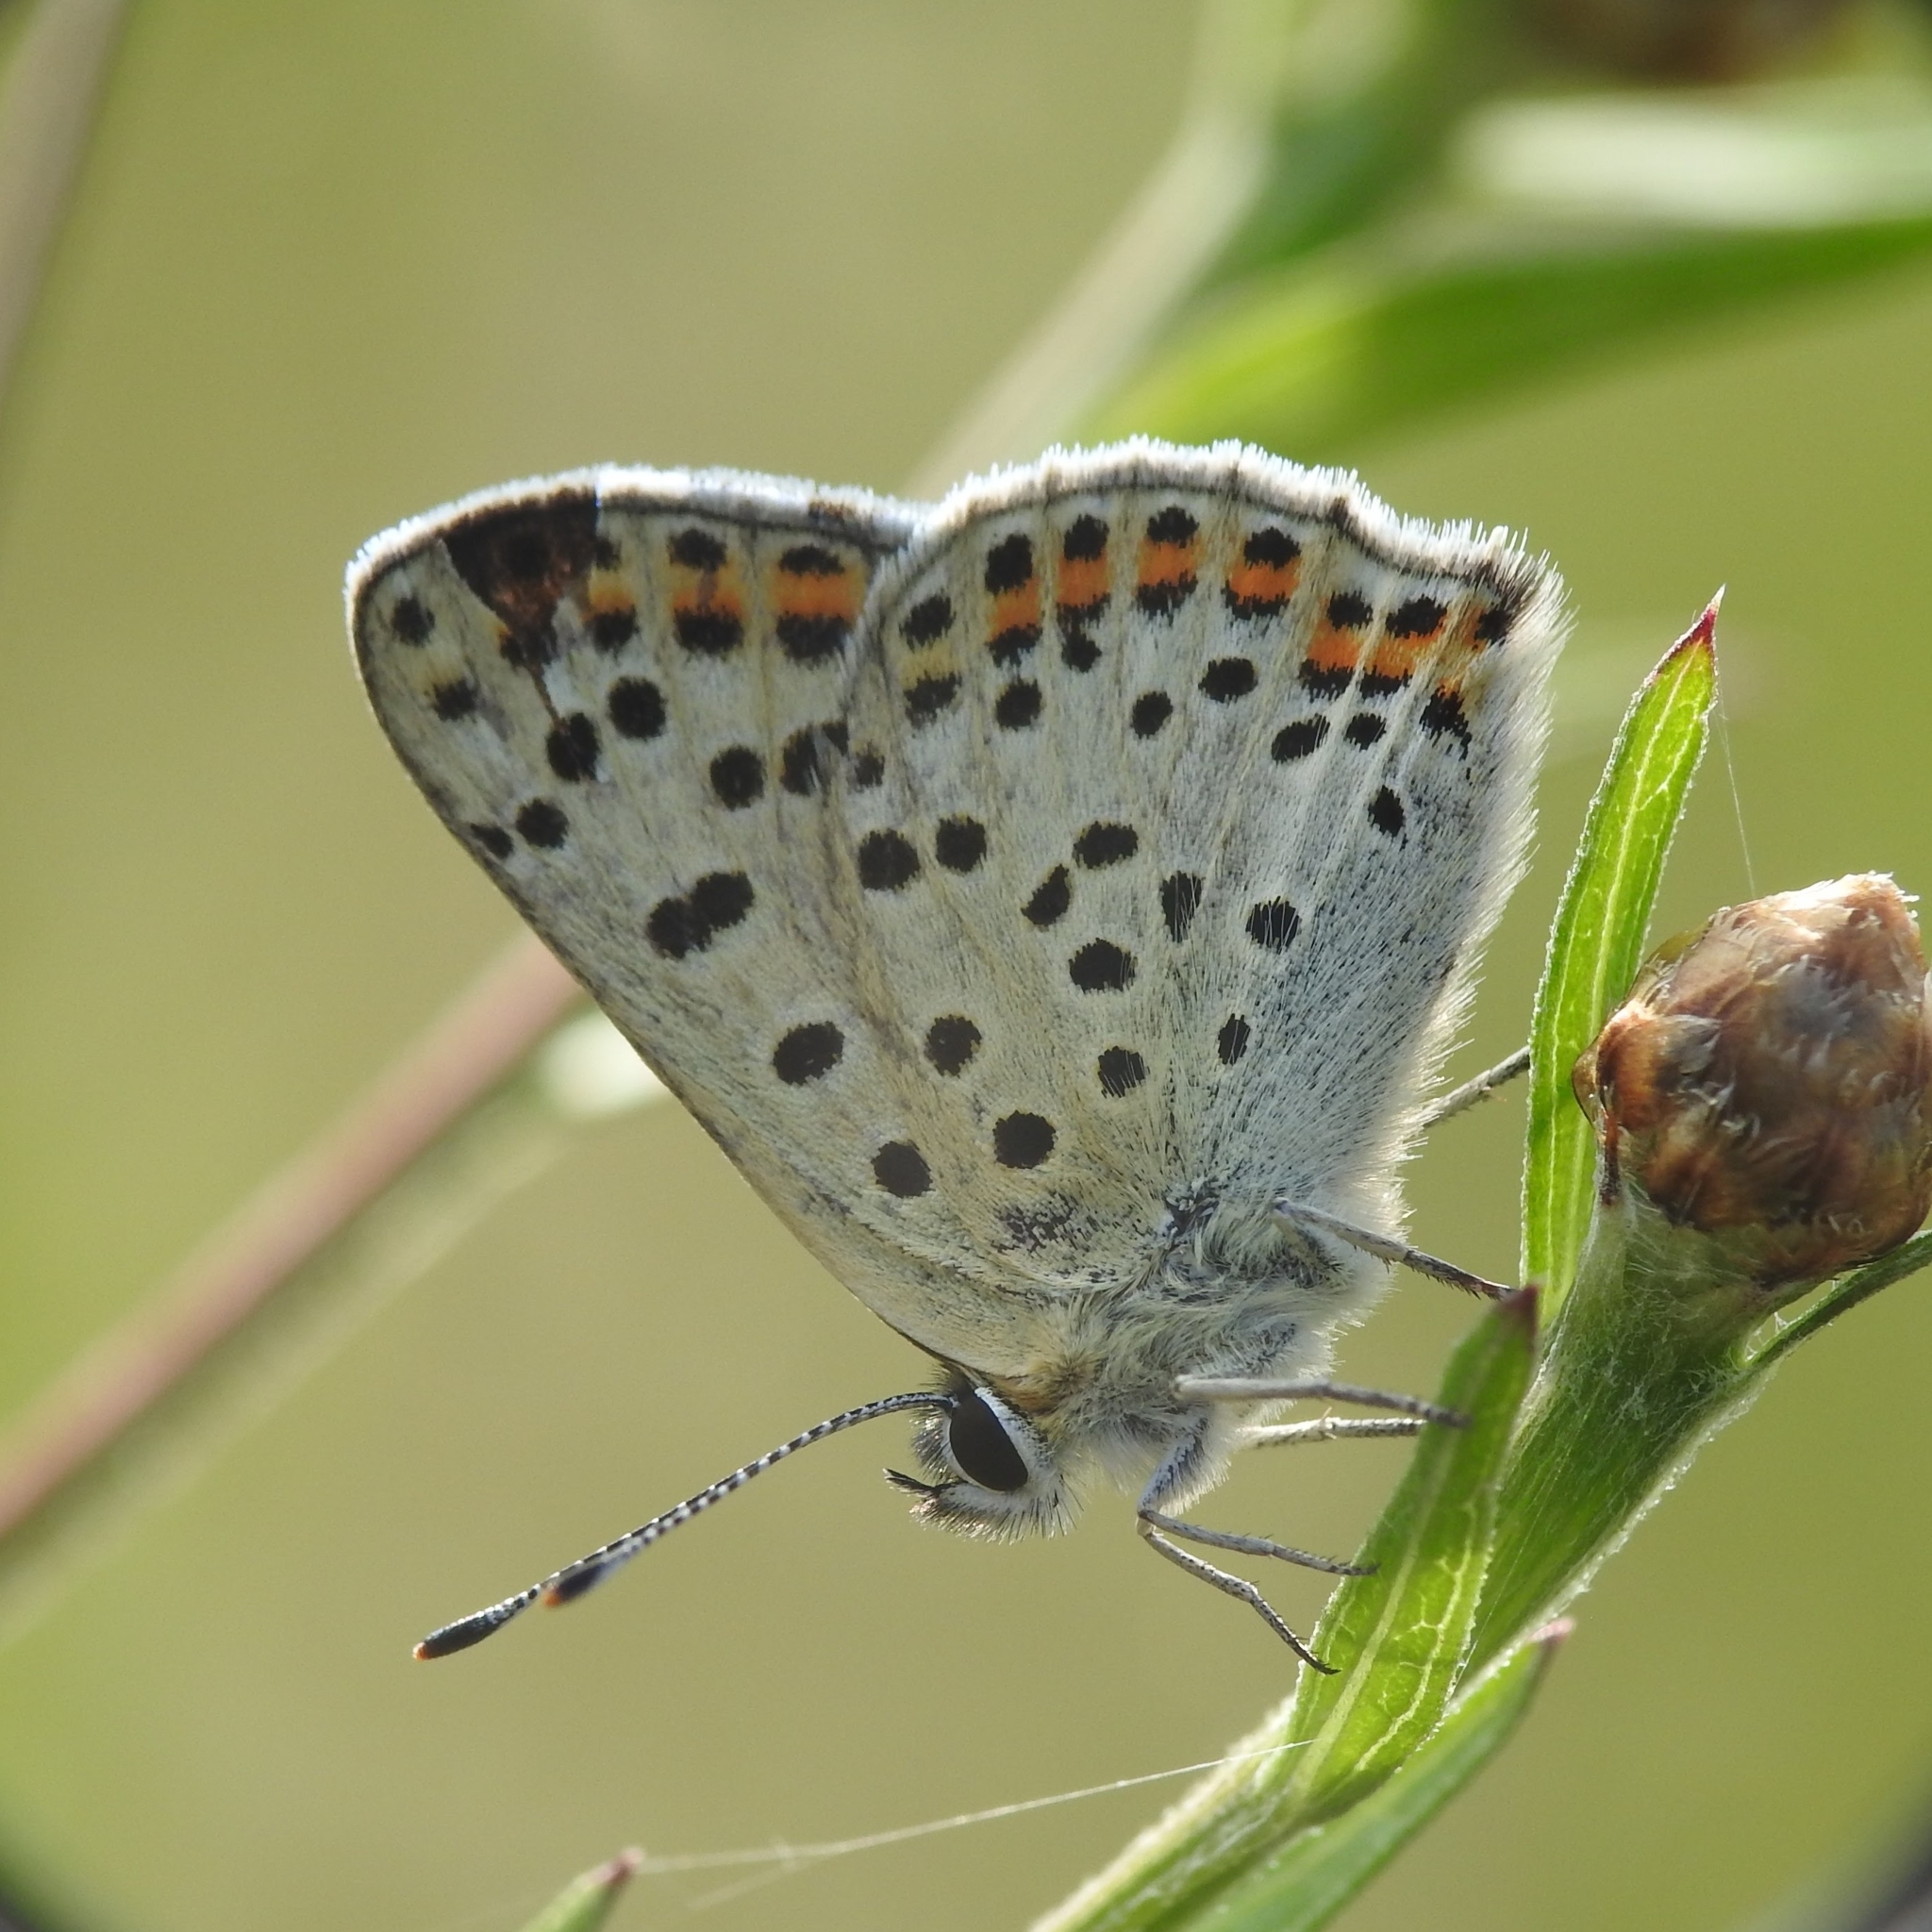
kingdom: Animalia
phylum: Arthropoda
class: Insecta
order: Lepidoptera
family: Lycaenidae
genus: Loweia
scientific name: Loweia tityrus
